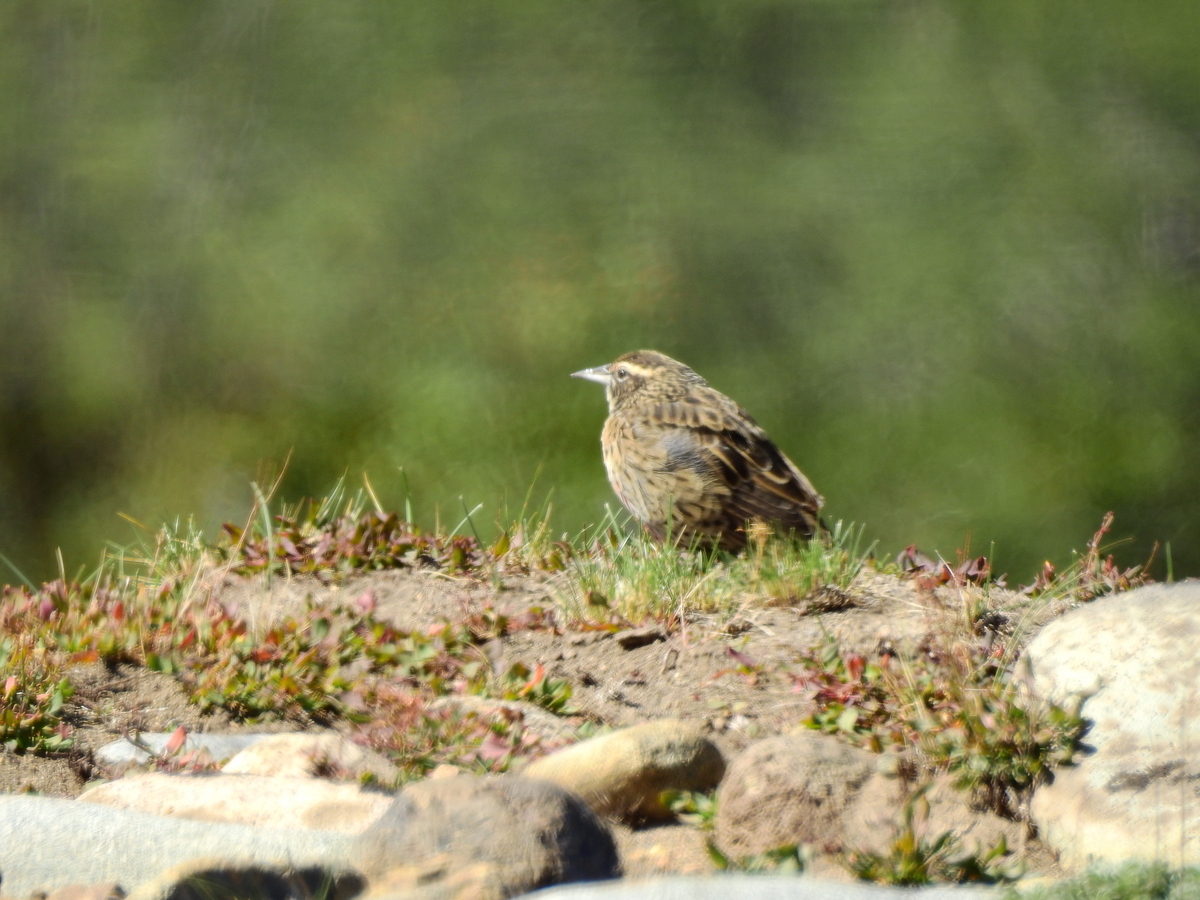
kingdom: Animalia
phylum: Chordata
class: Aves
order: Passeriformes
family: Icteridae
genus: Sturnella
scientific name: Sturnella loyca
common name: Long-tailed meadowlark
